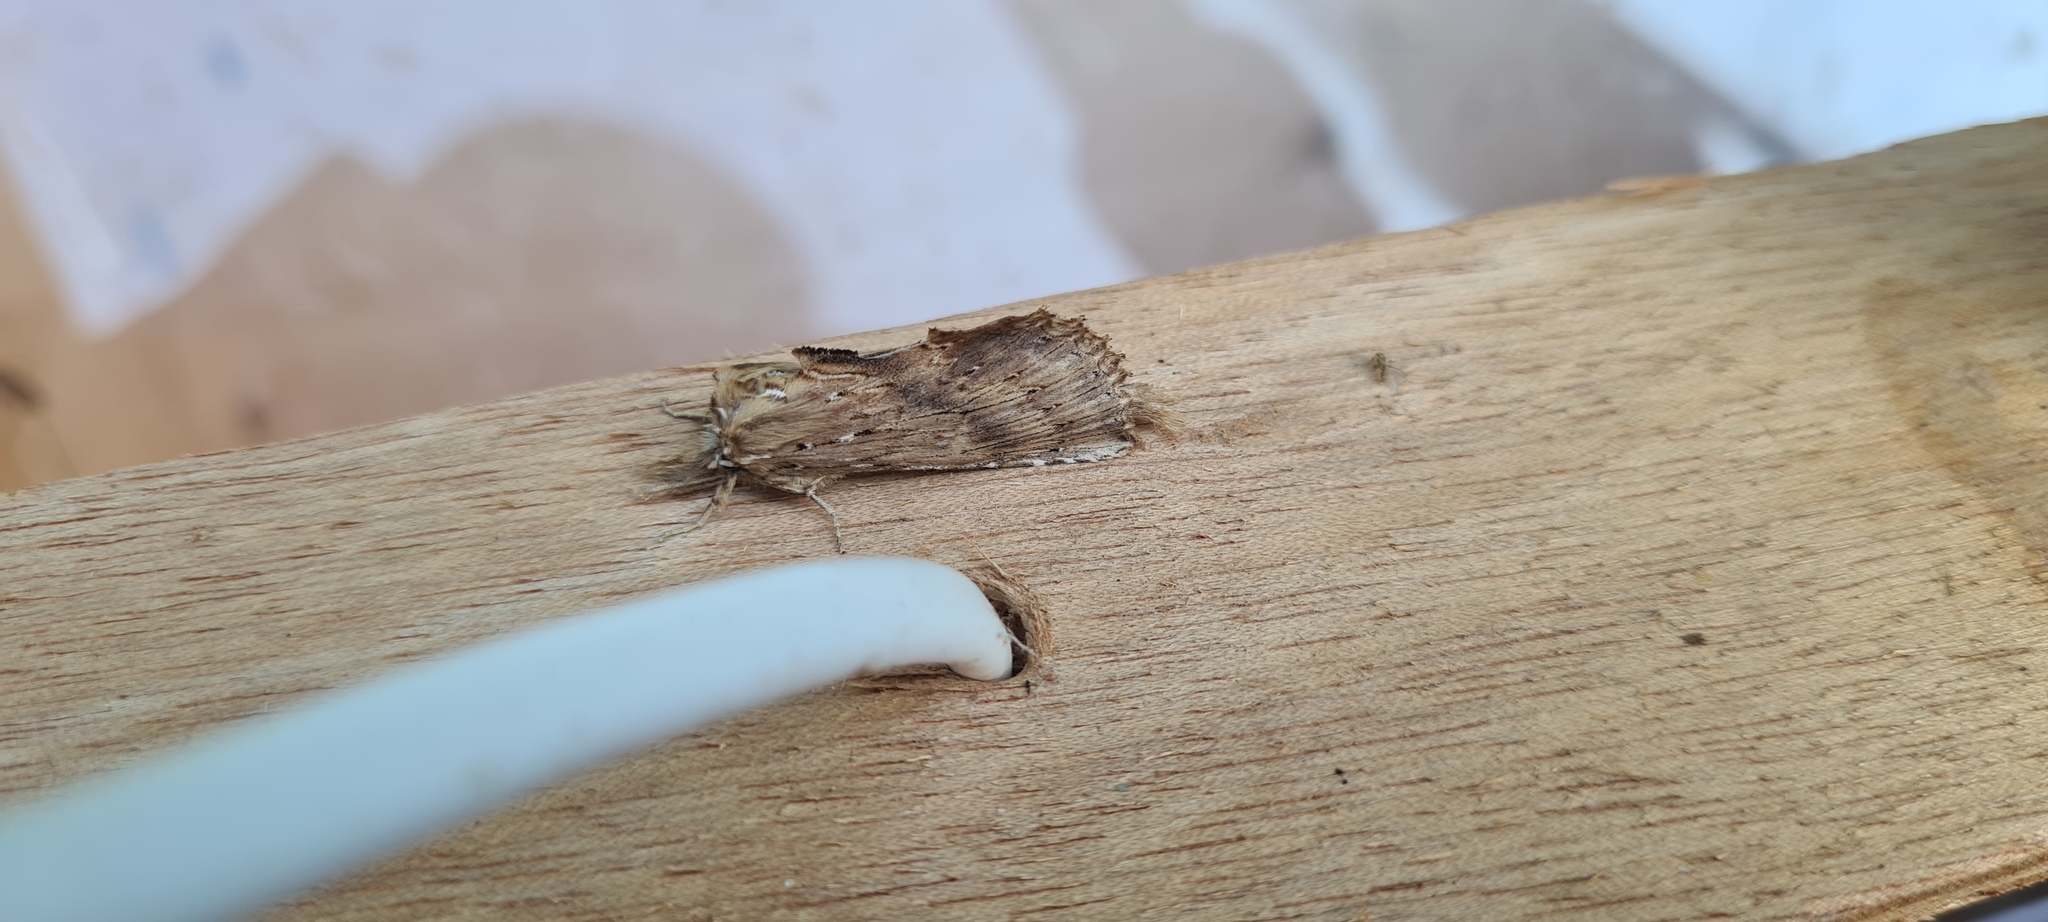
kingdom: Animalia
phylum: Arthropoda
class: Insecta
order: Lepidoptera
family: Notodontidae
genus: Pterostoma
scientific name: Pterostoma palpina
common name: Pale prominent
